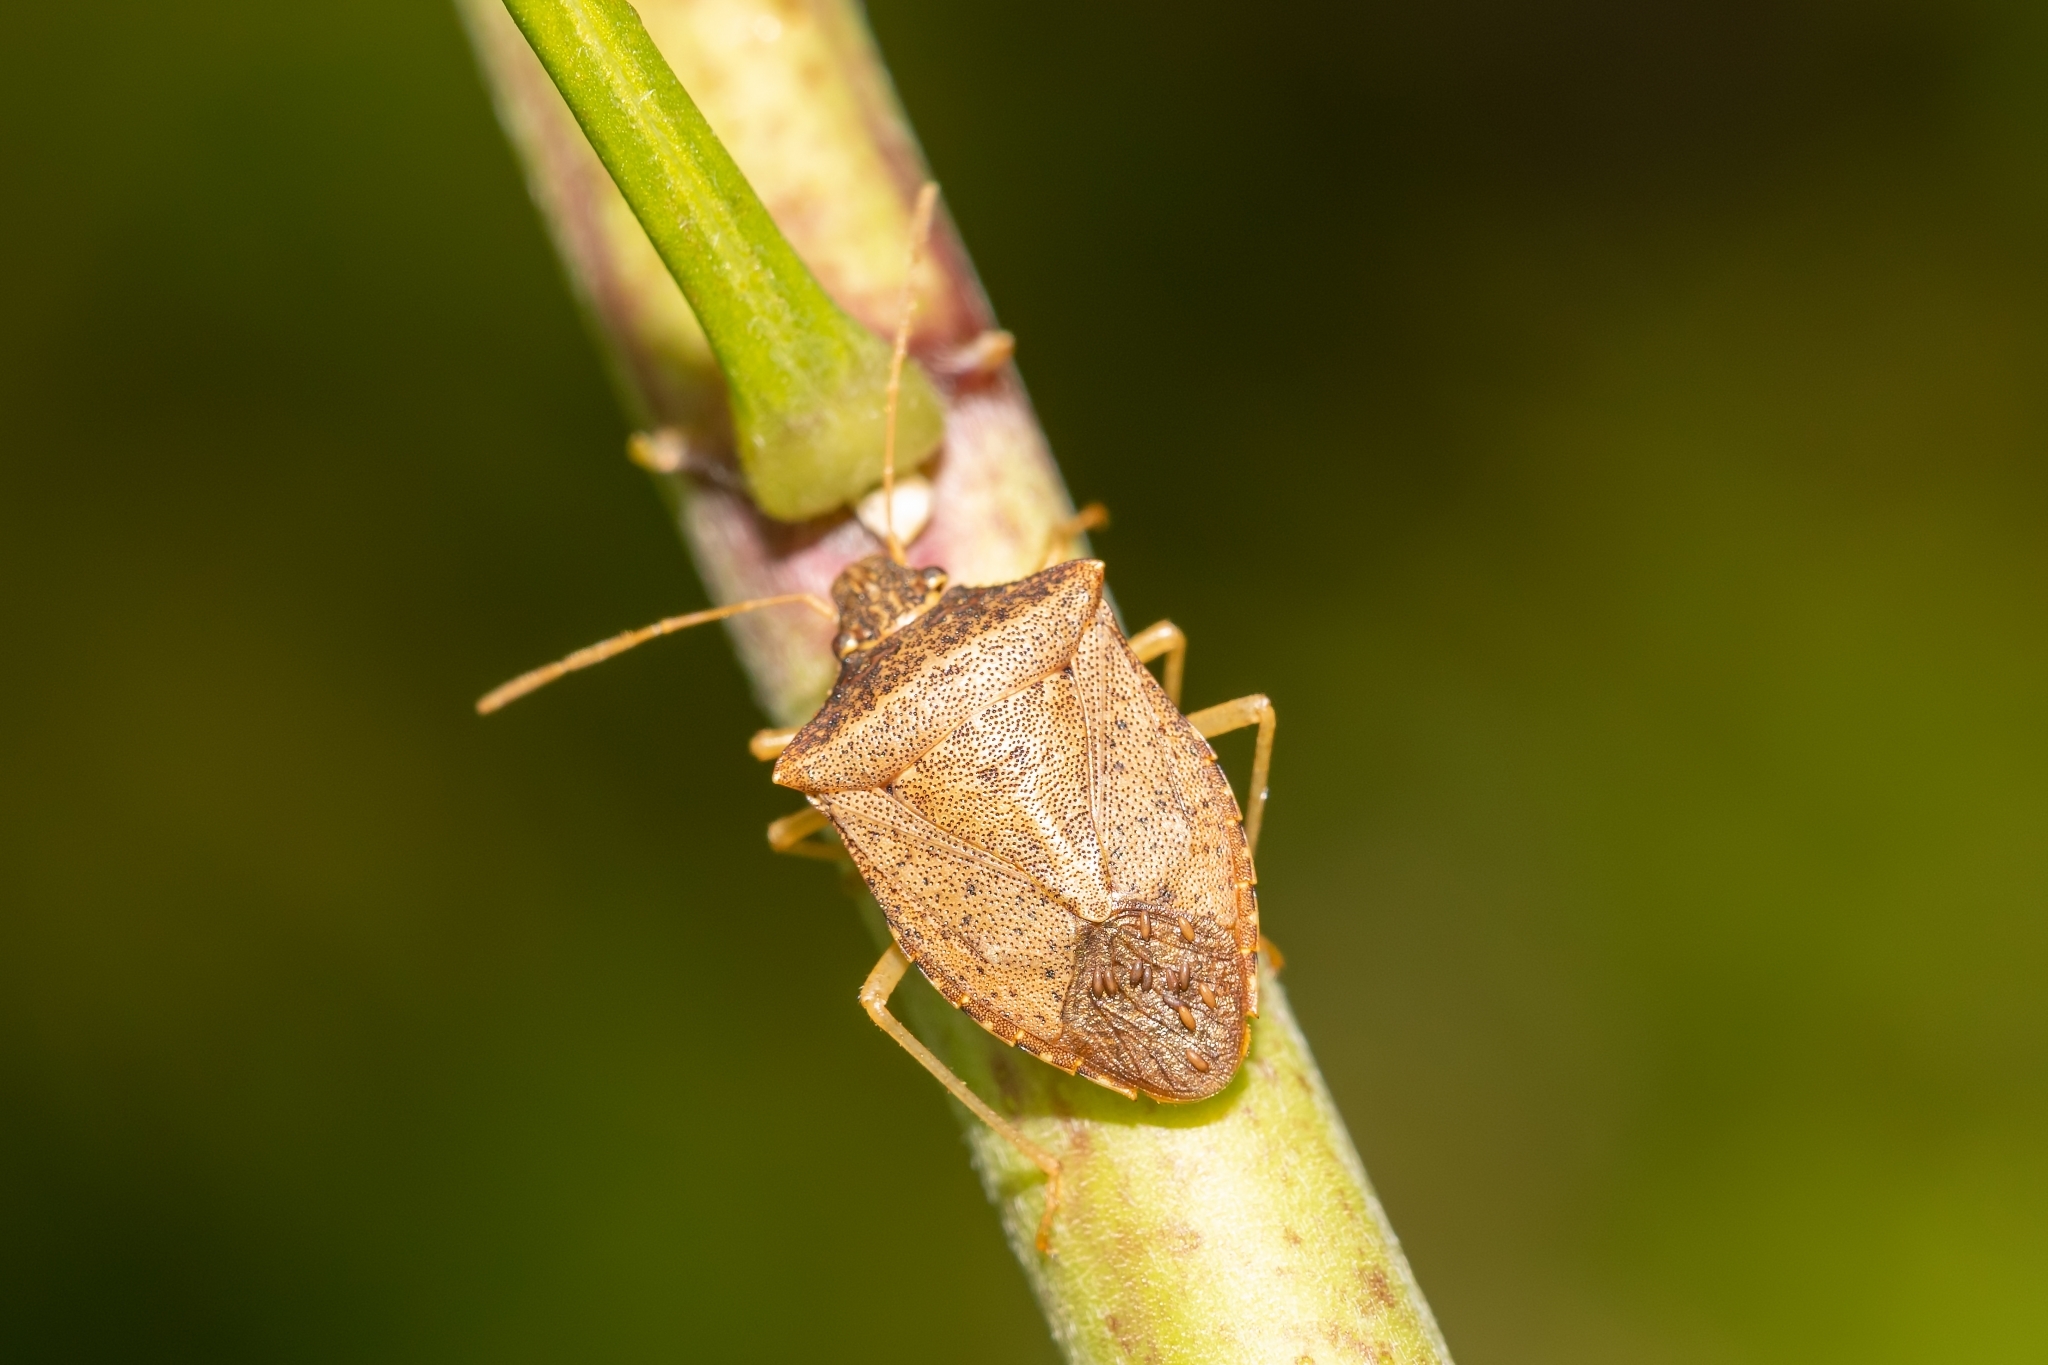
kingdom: Animalia
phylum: Arthropoda
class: Insecta
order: Hemiptera
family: Pentatomidae
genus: Euschistus
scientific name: Euschistus obscurus
